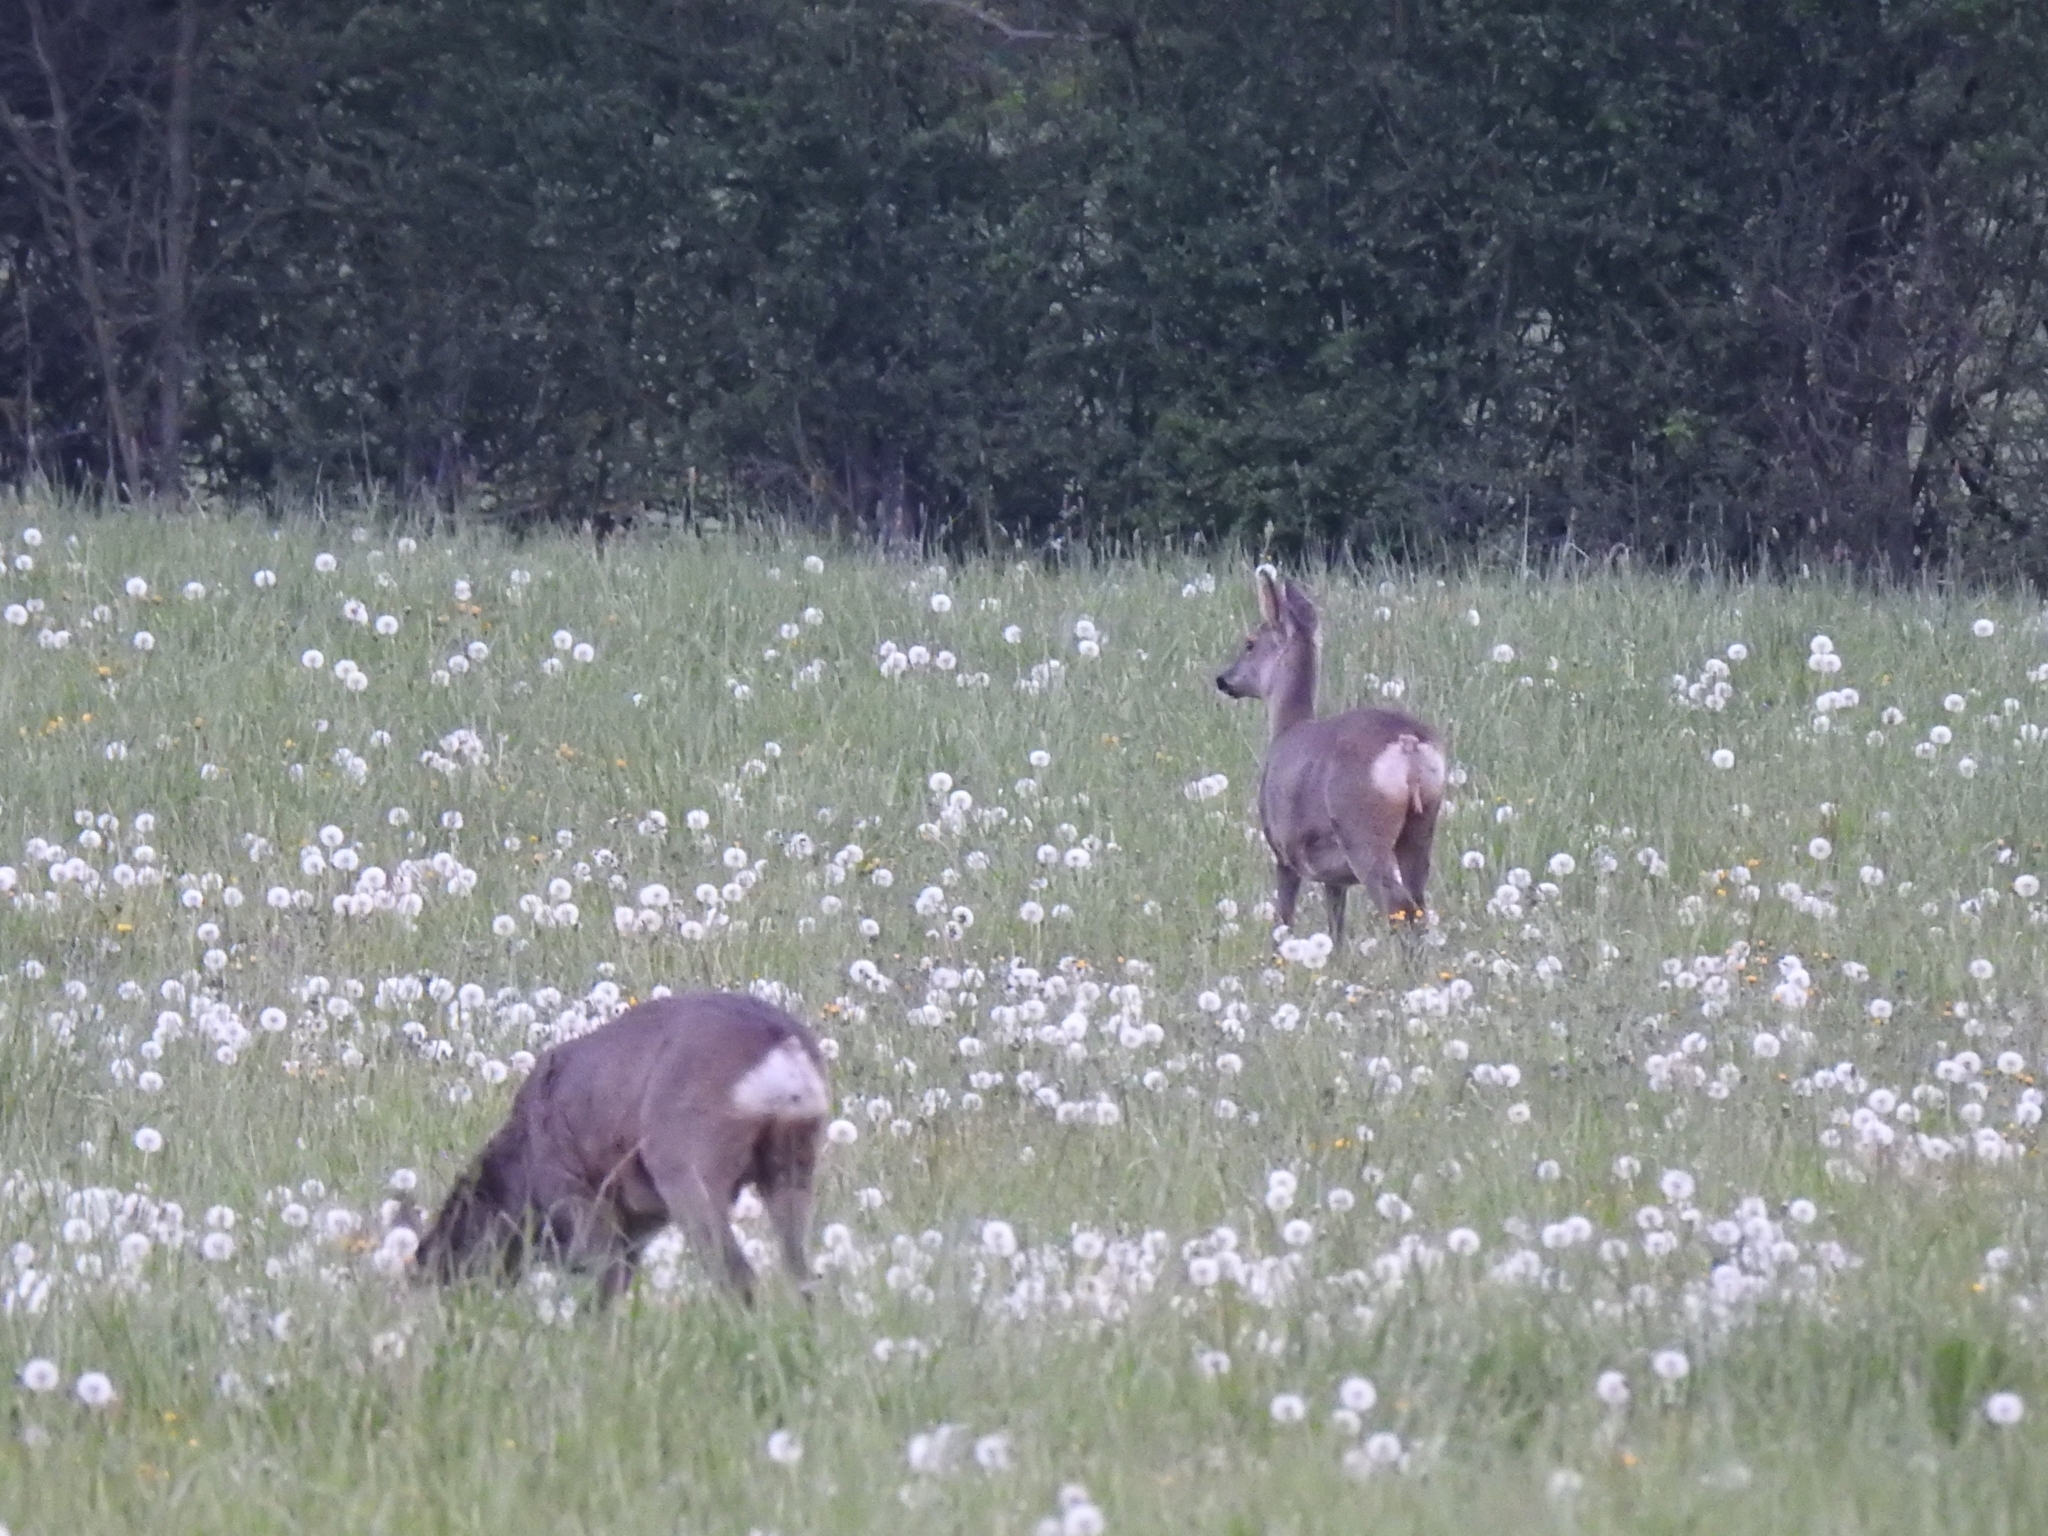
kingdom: Animalia
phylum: Chordata
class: Mammalia
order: Artiodactyla
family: Cervidae
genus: Capreolus
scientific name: Capreolus capreolus
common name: Western roe deer
